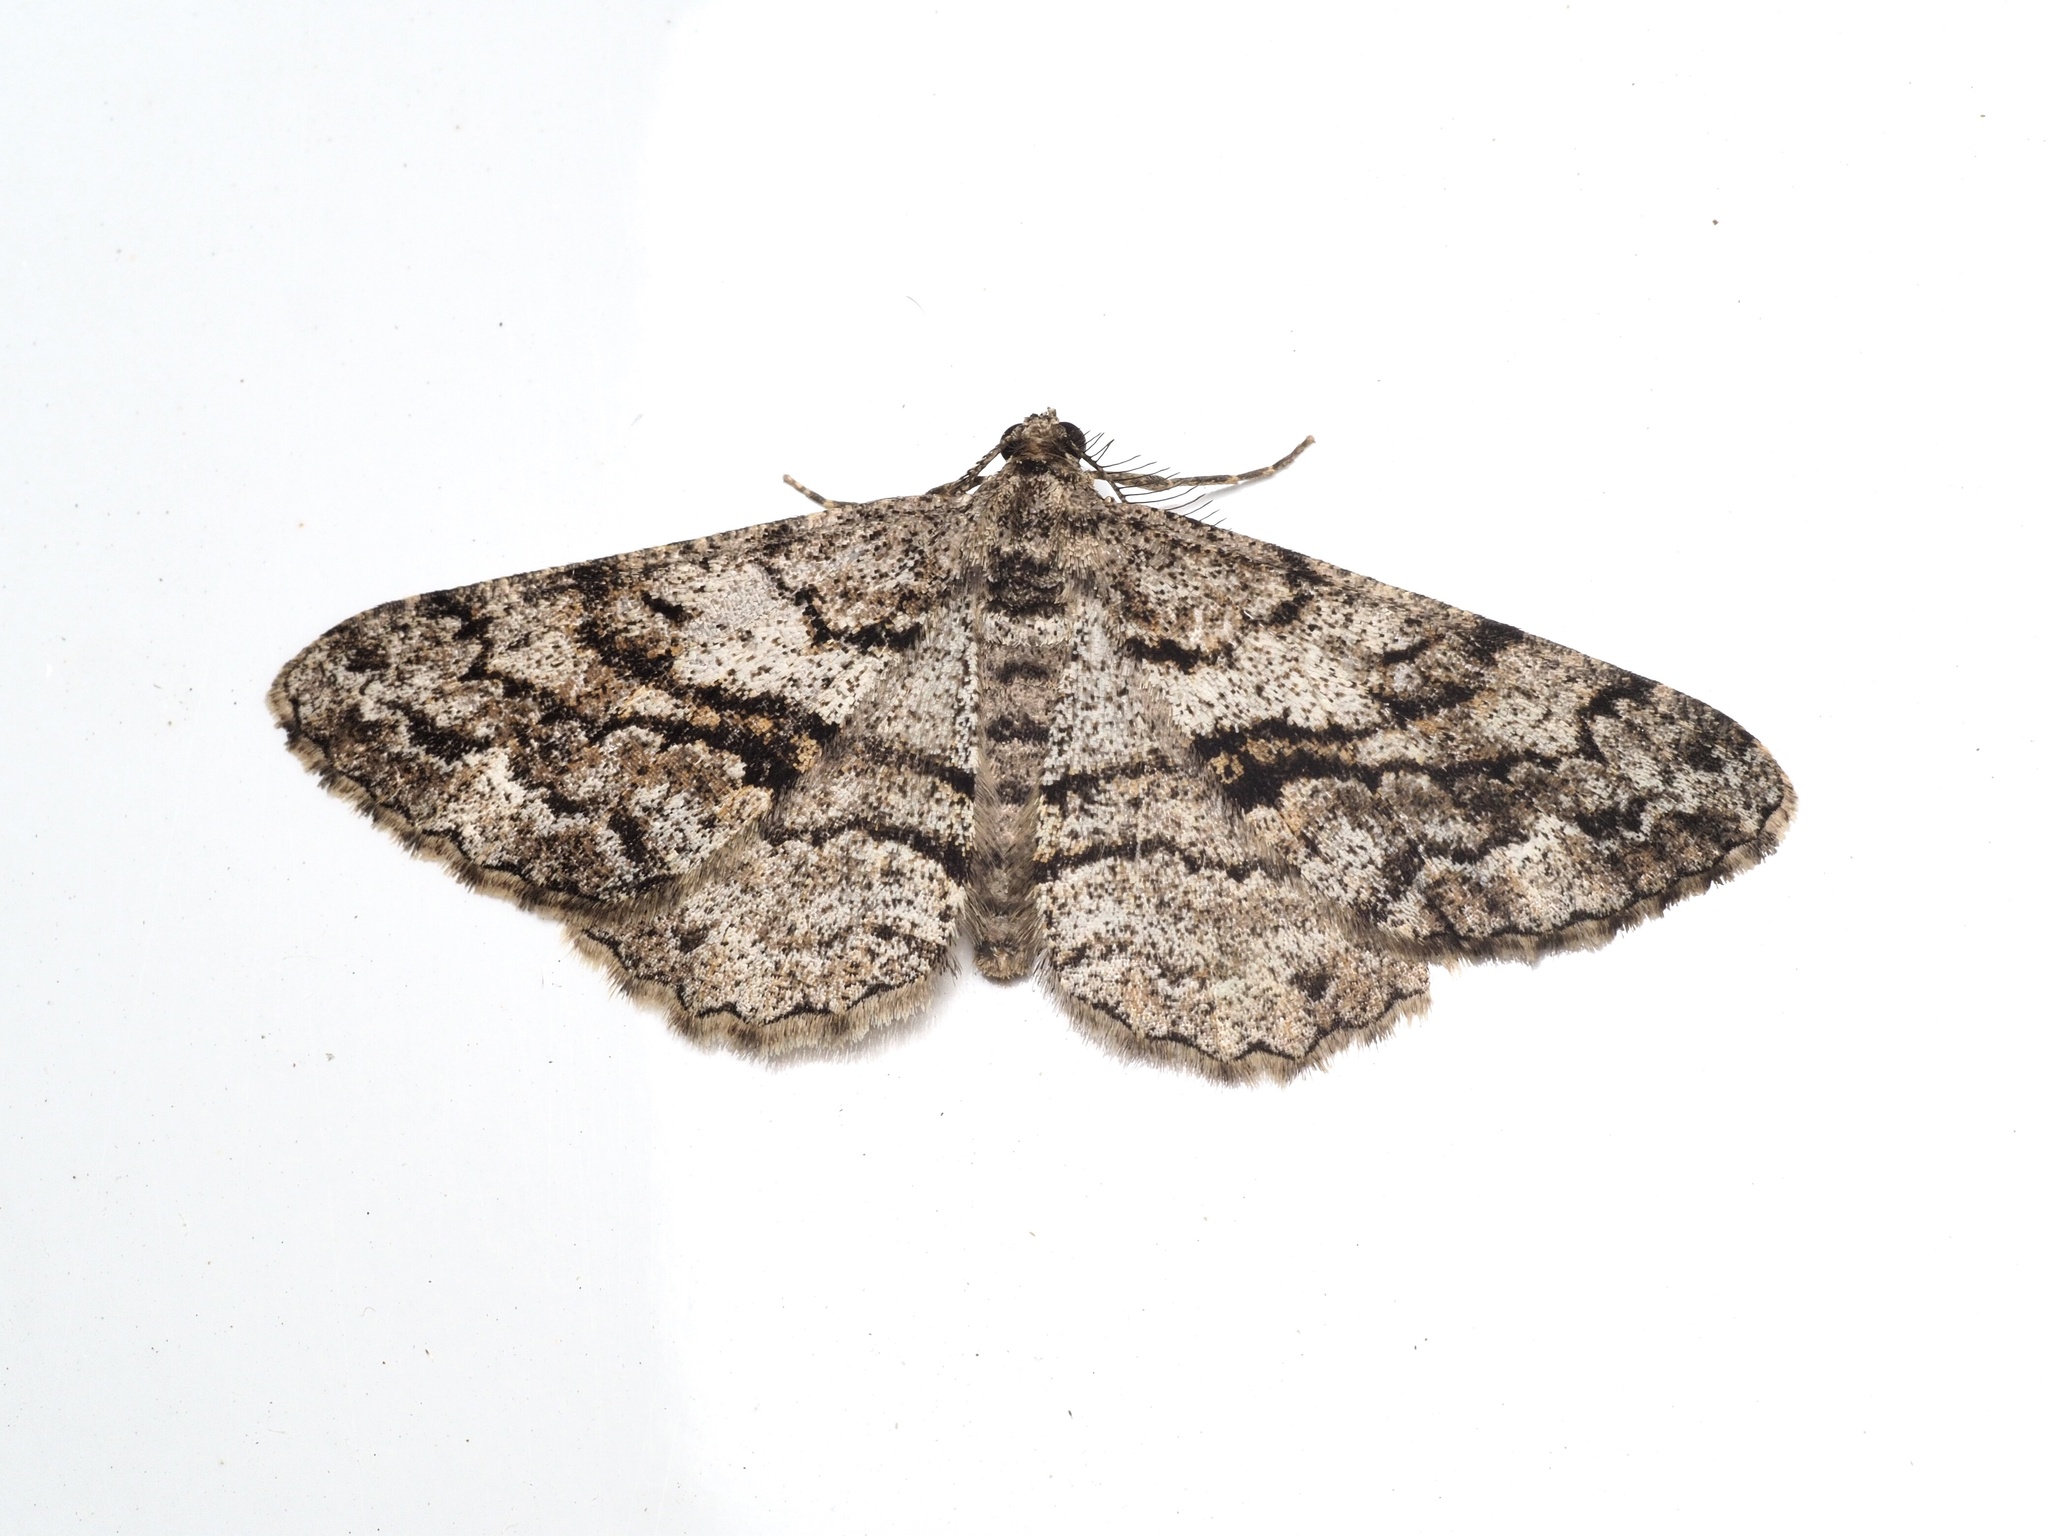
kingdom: Animalia
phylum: Arthropoda
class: Insecta
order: Lepidoptera
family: Geometridae
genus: Peribatodes
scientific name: Peribatodes secundaria
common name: Feathered beauty
